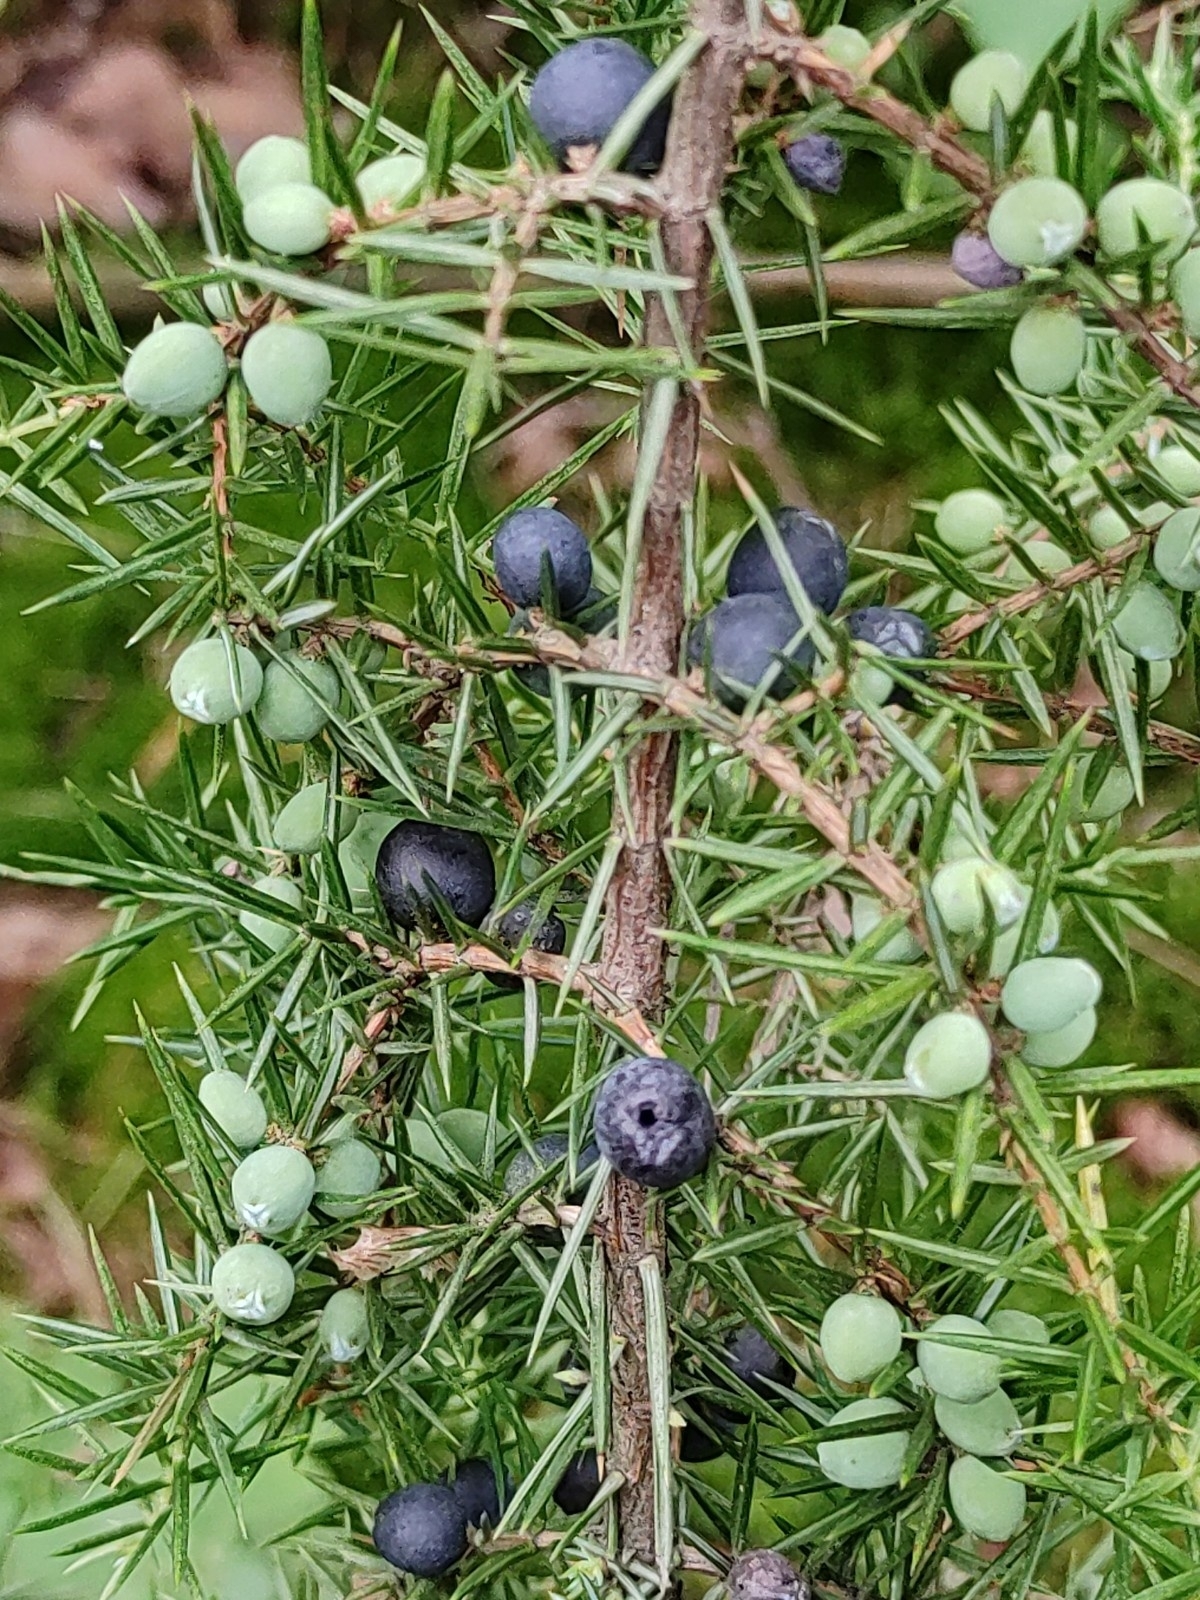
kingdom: Plantae
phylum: Tracheophyta
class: Pinopsida
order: Pinales
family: Cupressaceae
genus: Juniperus
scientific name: Juniperus communis
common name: Common juniper
